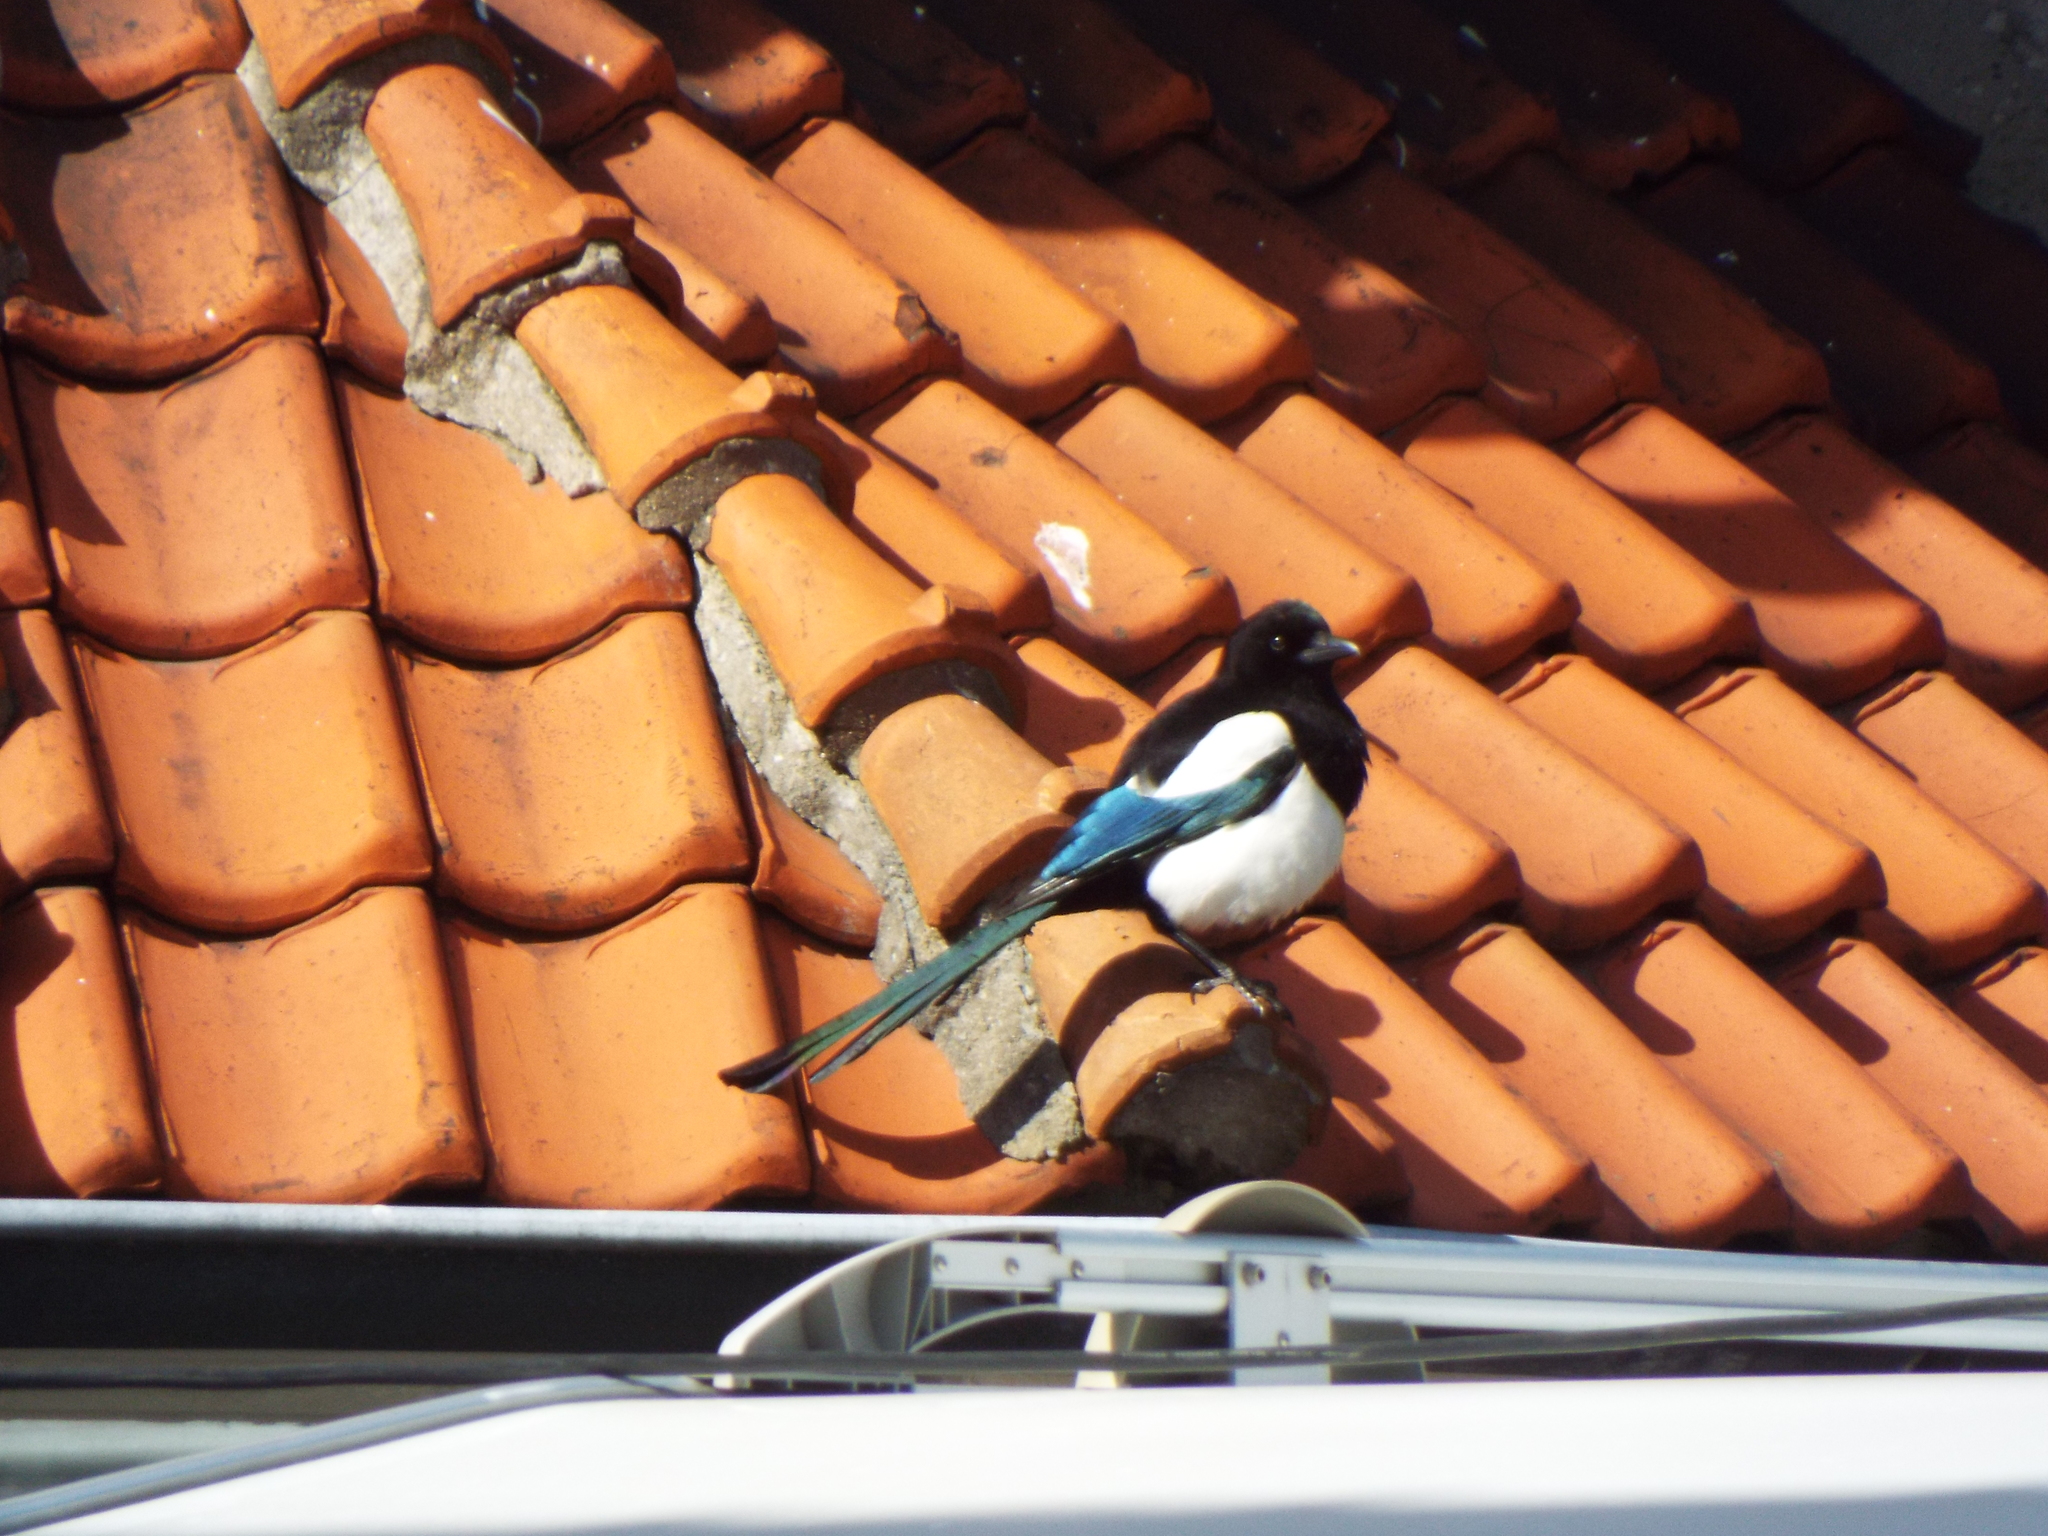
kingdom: Animalia
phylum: Chordata
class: Aves
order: Passeriformes
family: Corvidae
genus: Pica
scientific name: Pica pica
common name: Eurasian magpie
